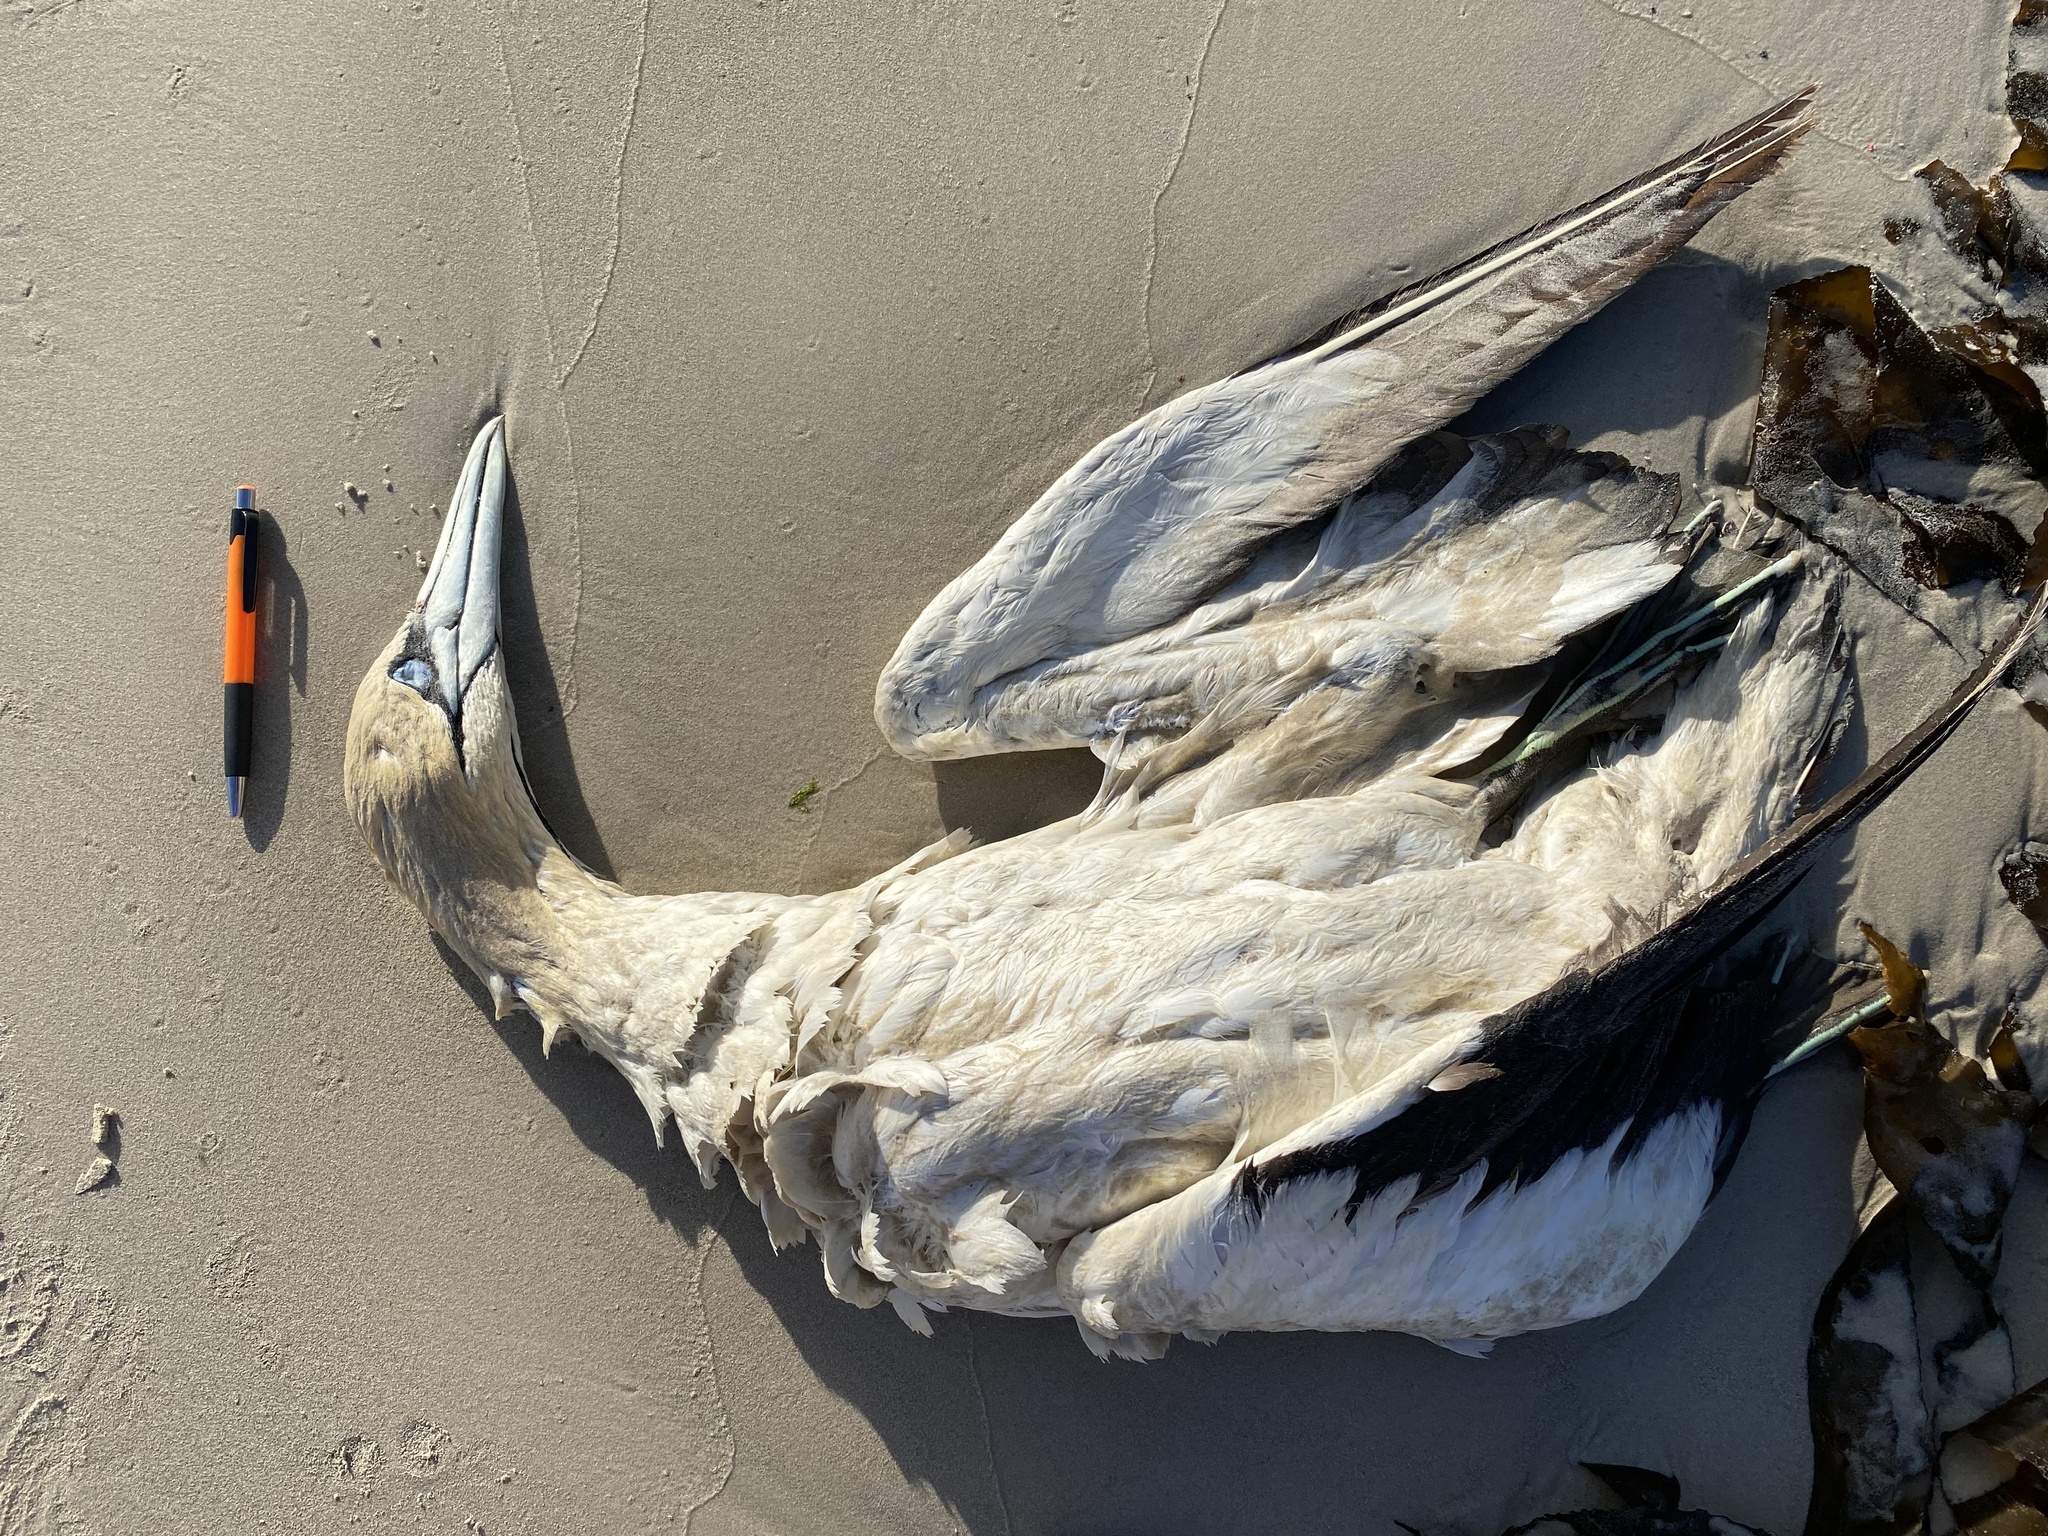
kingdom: Animalia
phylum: Chordata
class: Aves
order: Suliformes
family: Sulidae
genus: Morus
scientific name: Morus capensis
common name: Cape gannet
